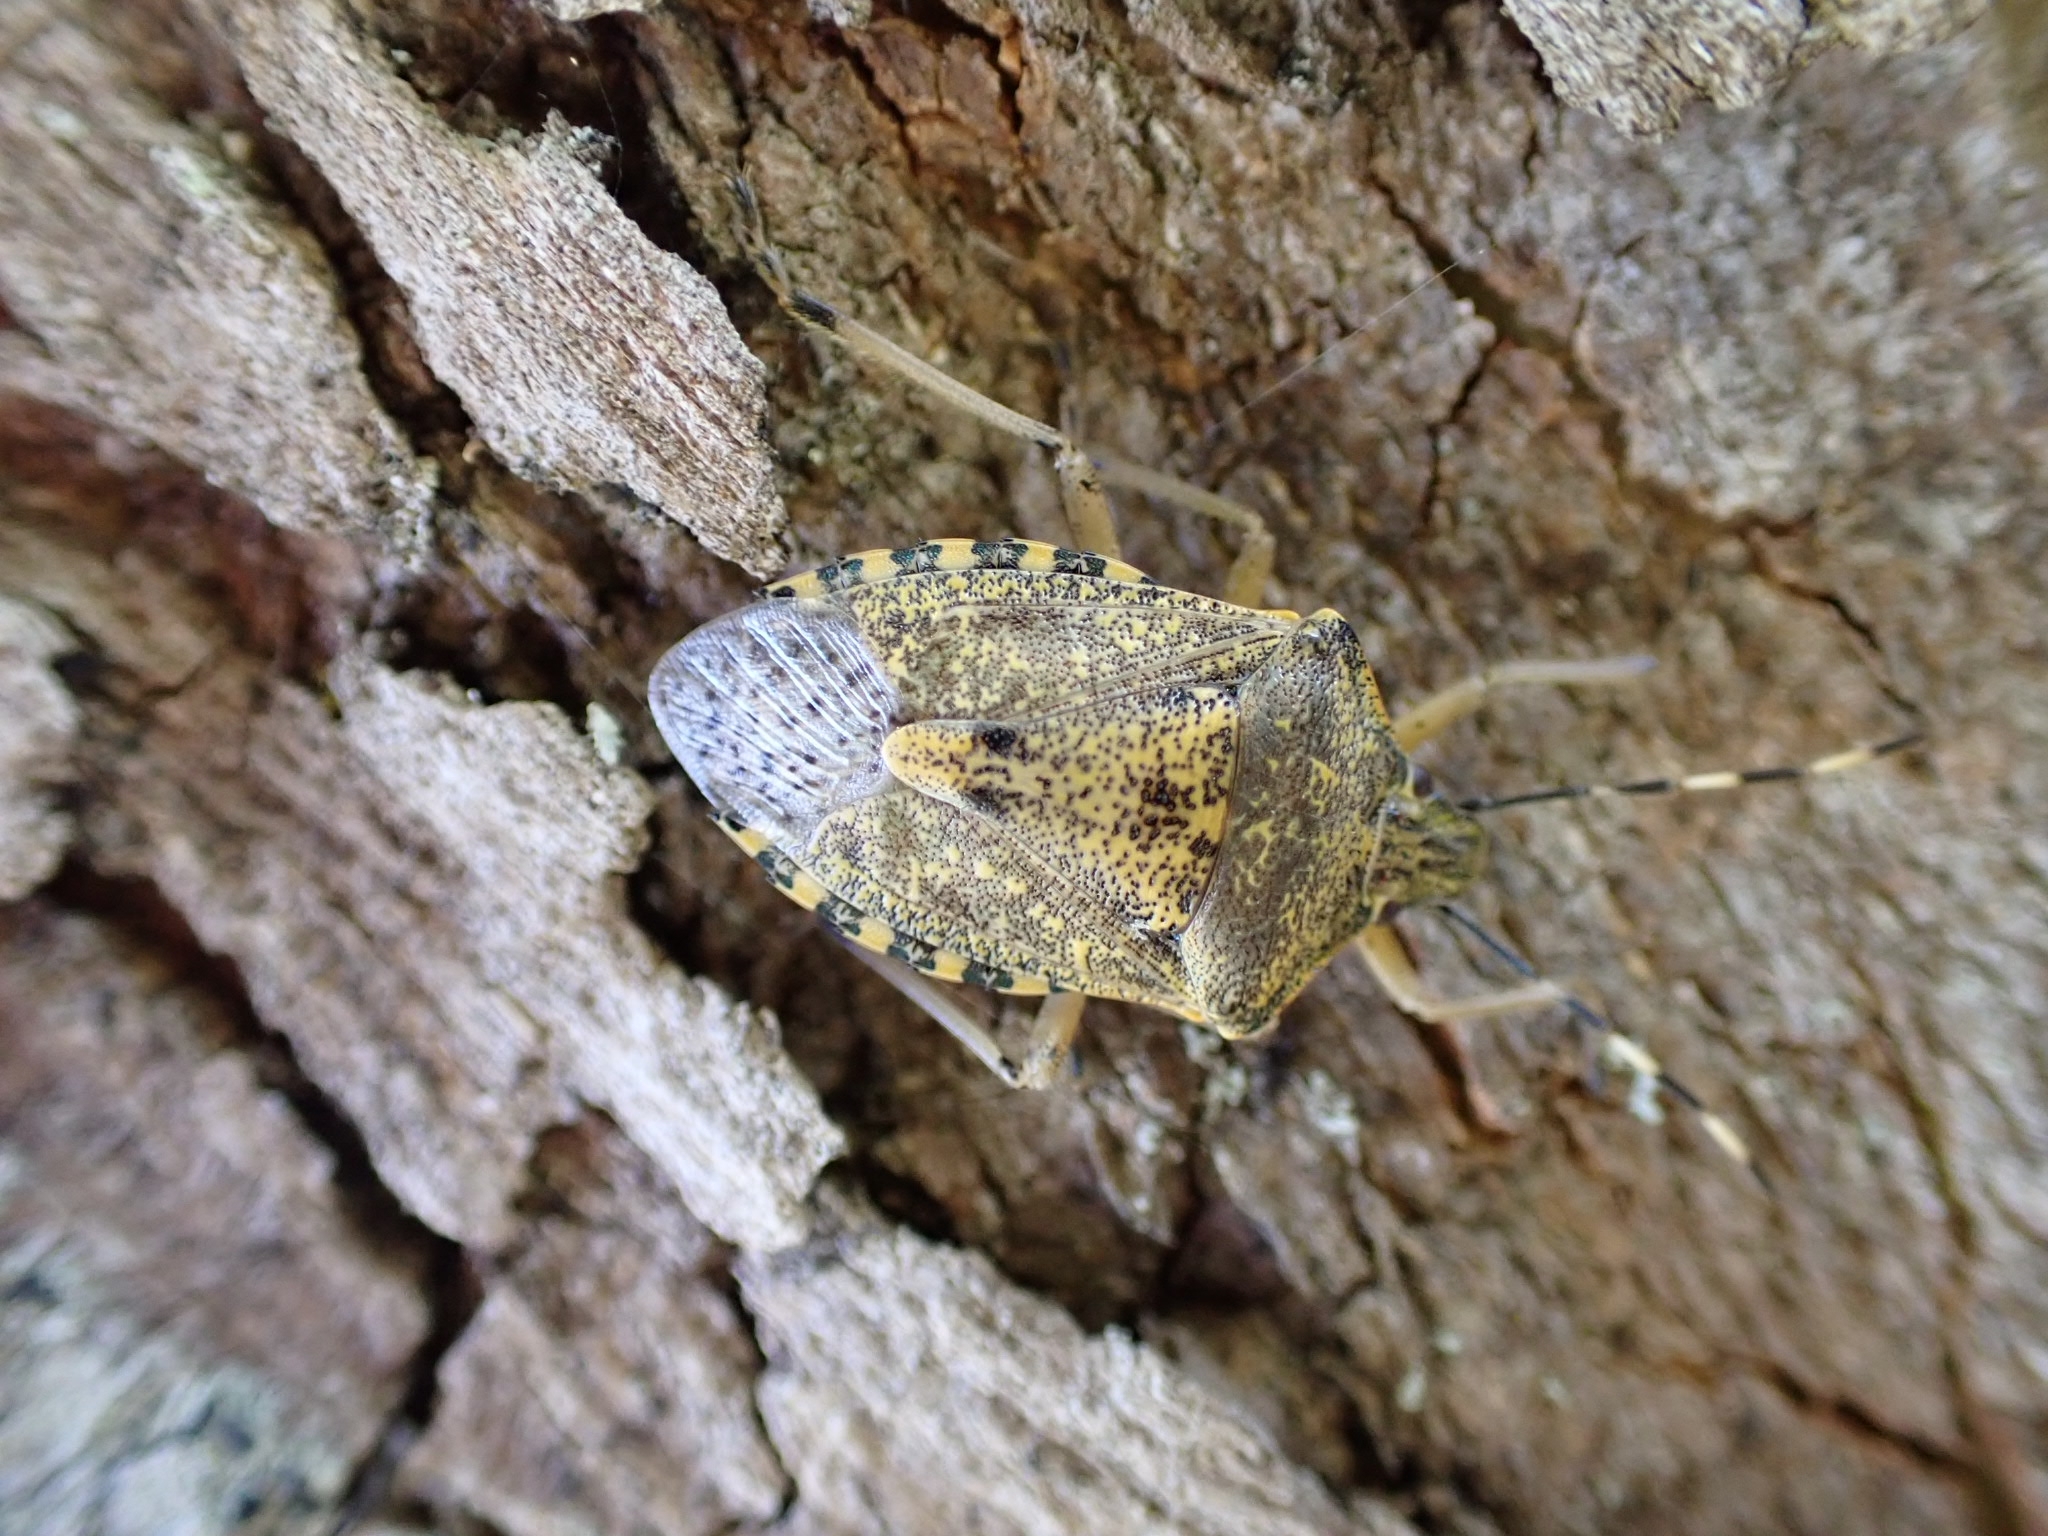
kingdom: Animalia
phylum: Arthropoda
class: Insecta
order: Hemiptera
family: Pentatomidae
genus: Rhaphigaster
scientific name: Rhaphigaster nebulosa
